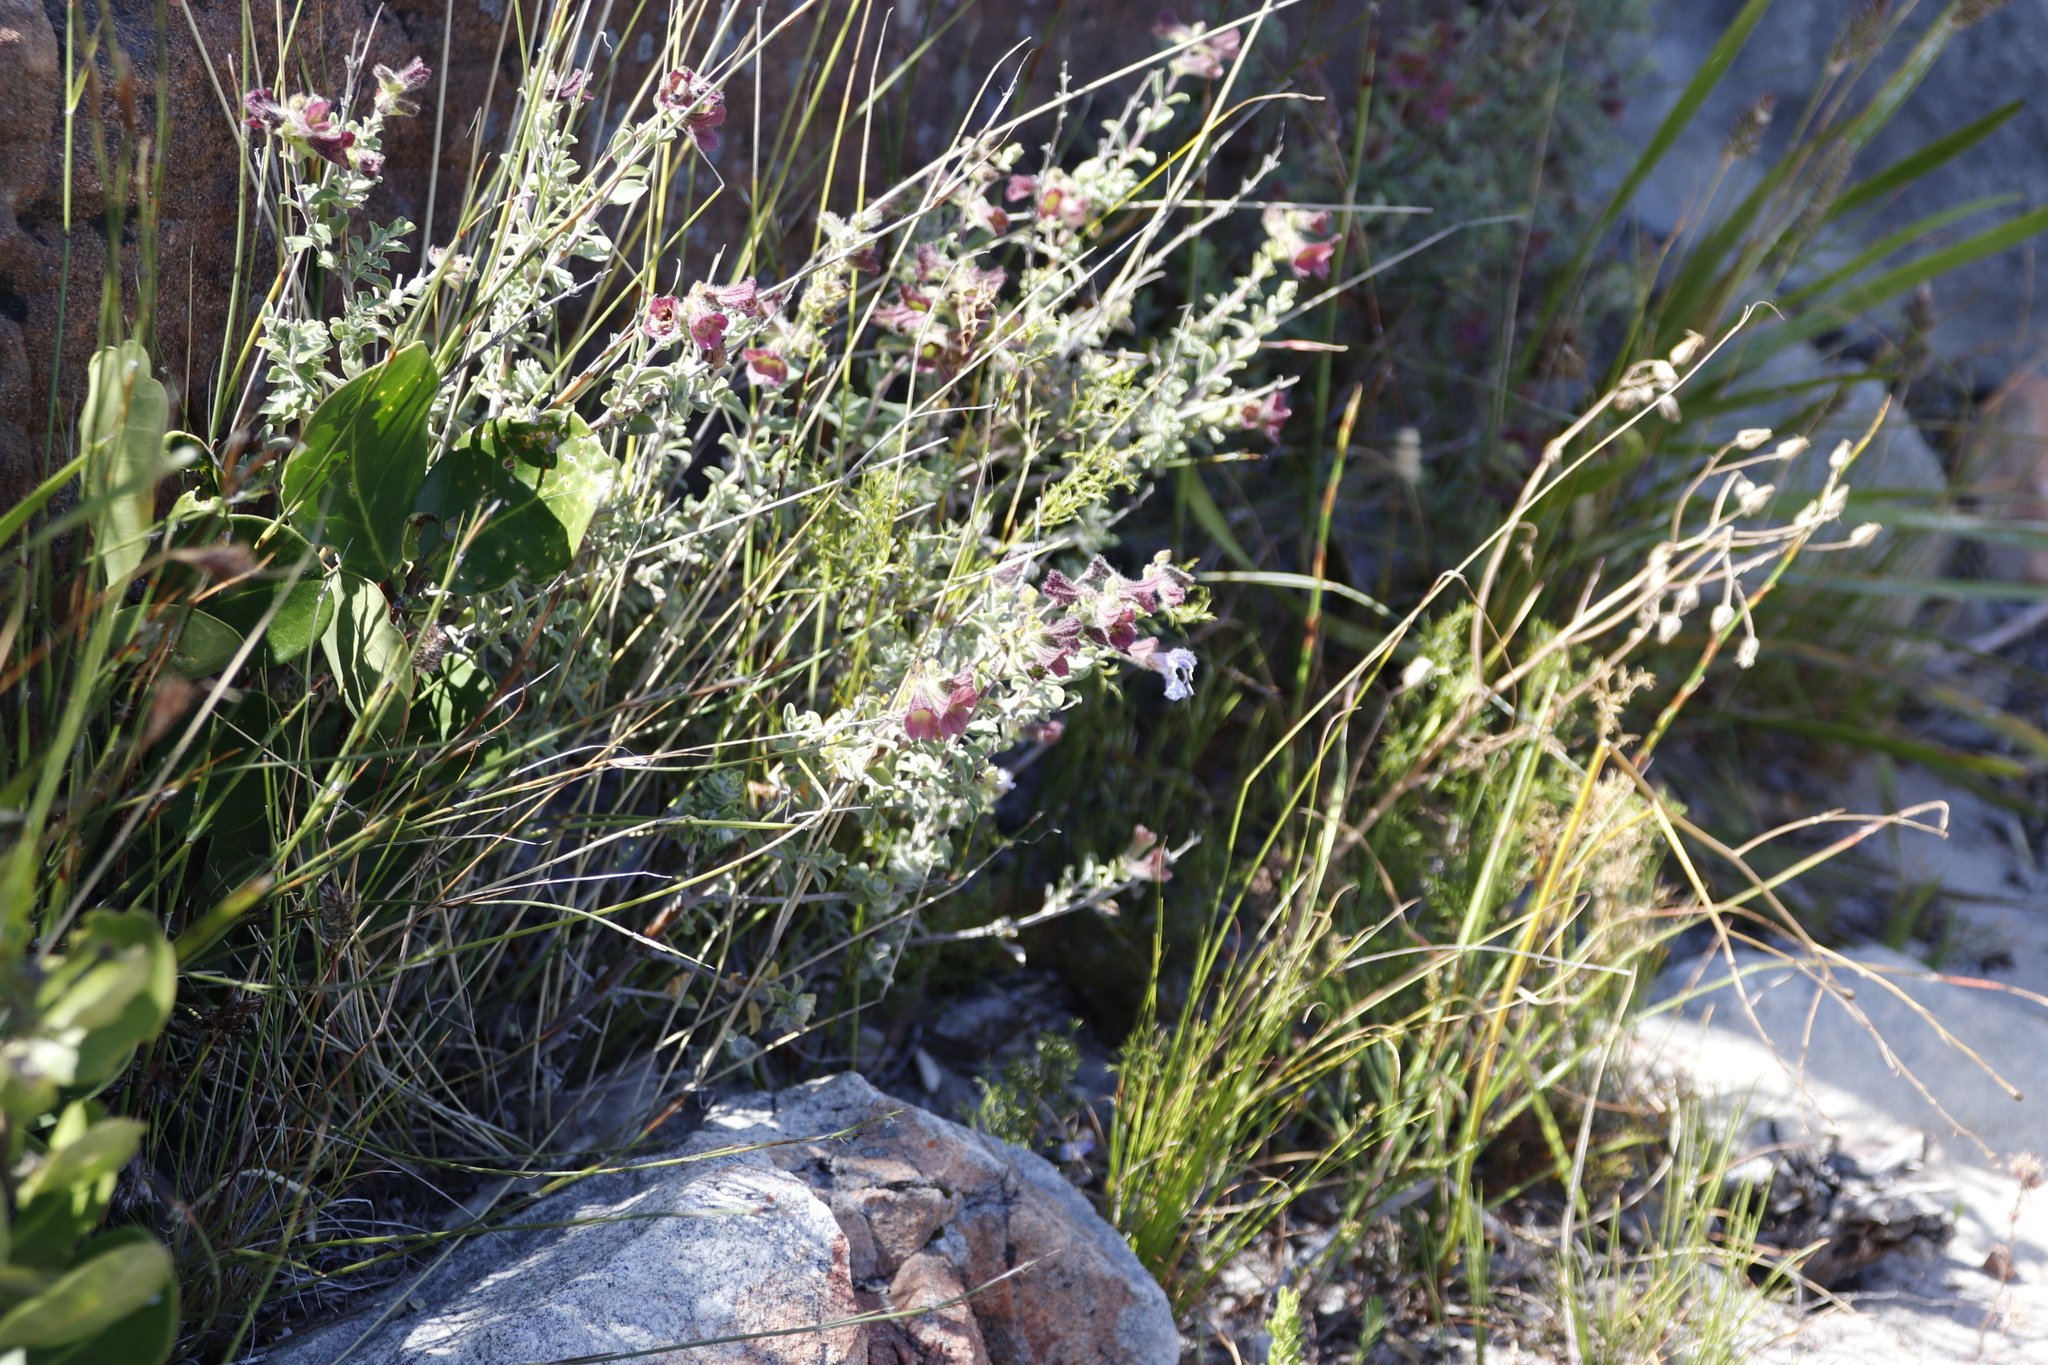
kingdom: Plantae
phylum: Tracheophyta
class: Magnoliopsida
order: Lamiales
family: Lamiaceae
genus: Salvia
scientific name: Salvia africana
